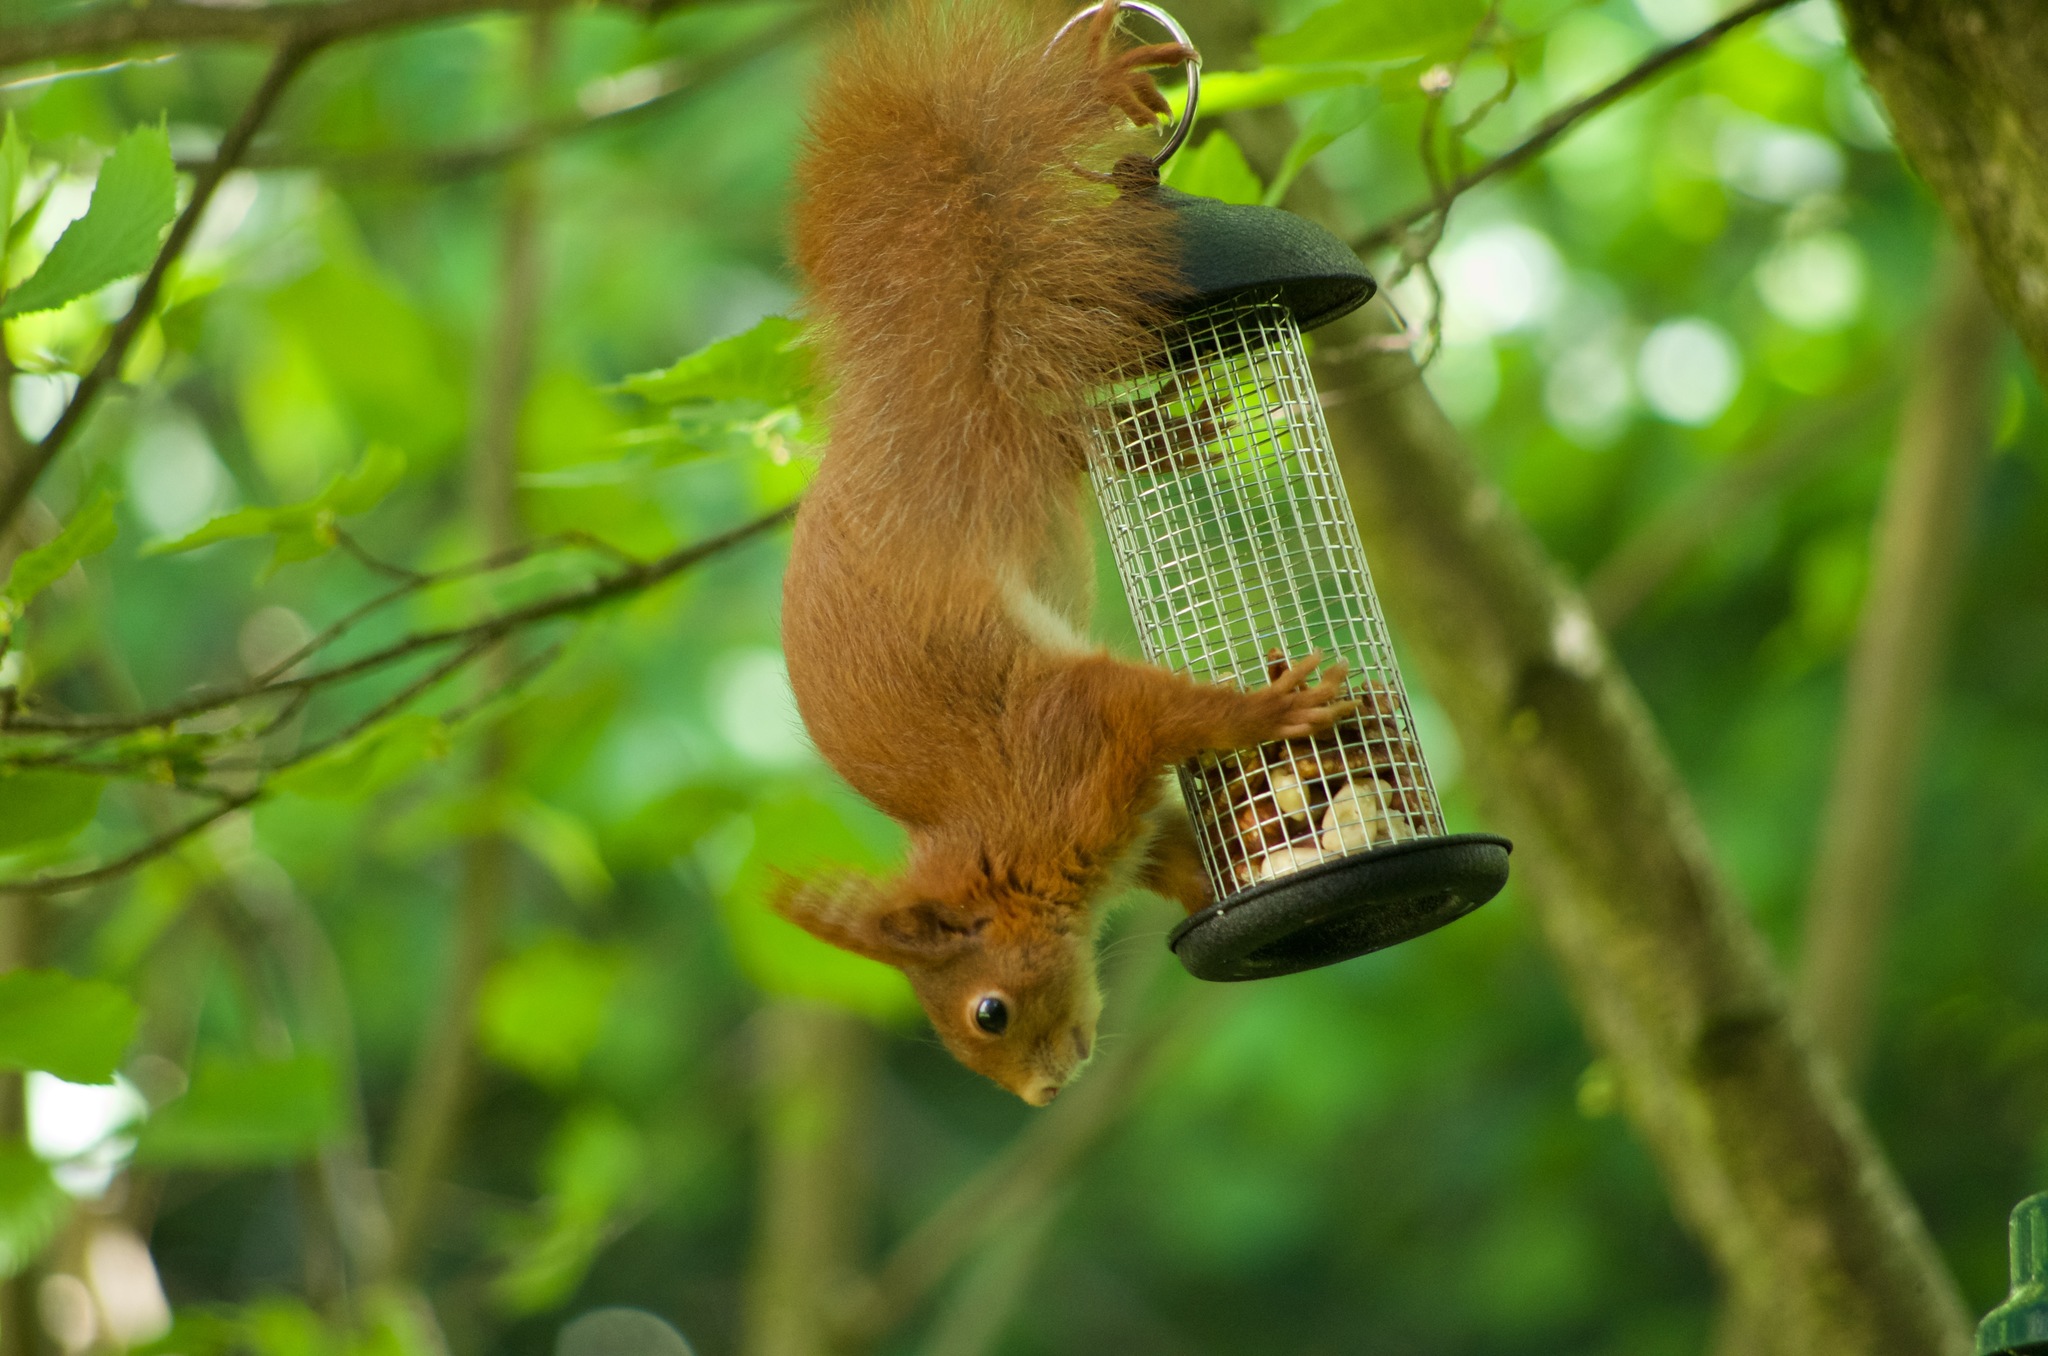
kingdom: Animalia
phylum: Chordata
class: Mammalia
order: Rodentia
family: Sciuridae
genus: Sciurus
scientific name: Sciurus vulgaris
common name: Eurasian red squirrel
